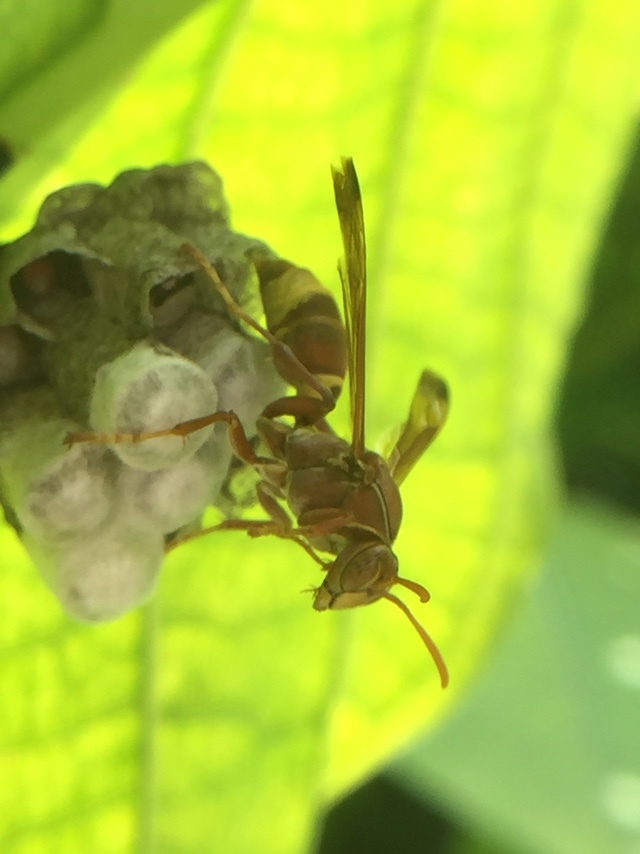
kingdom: Animalia
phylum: Arthropoda
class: Insecta
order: Hymenoptera
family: Eumenidae
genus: Polistes
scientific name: Polistes stigma
